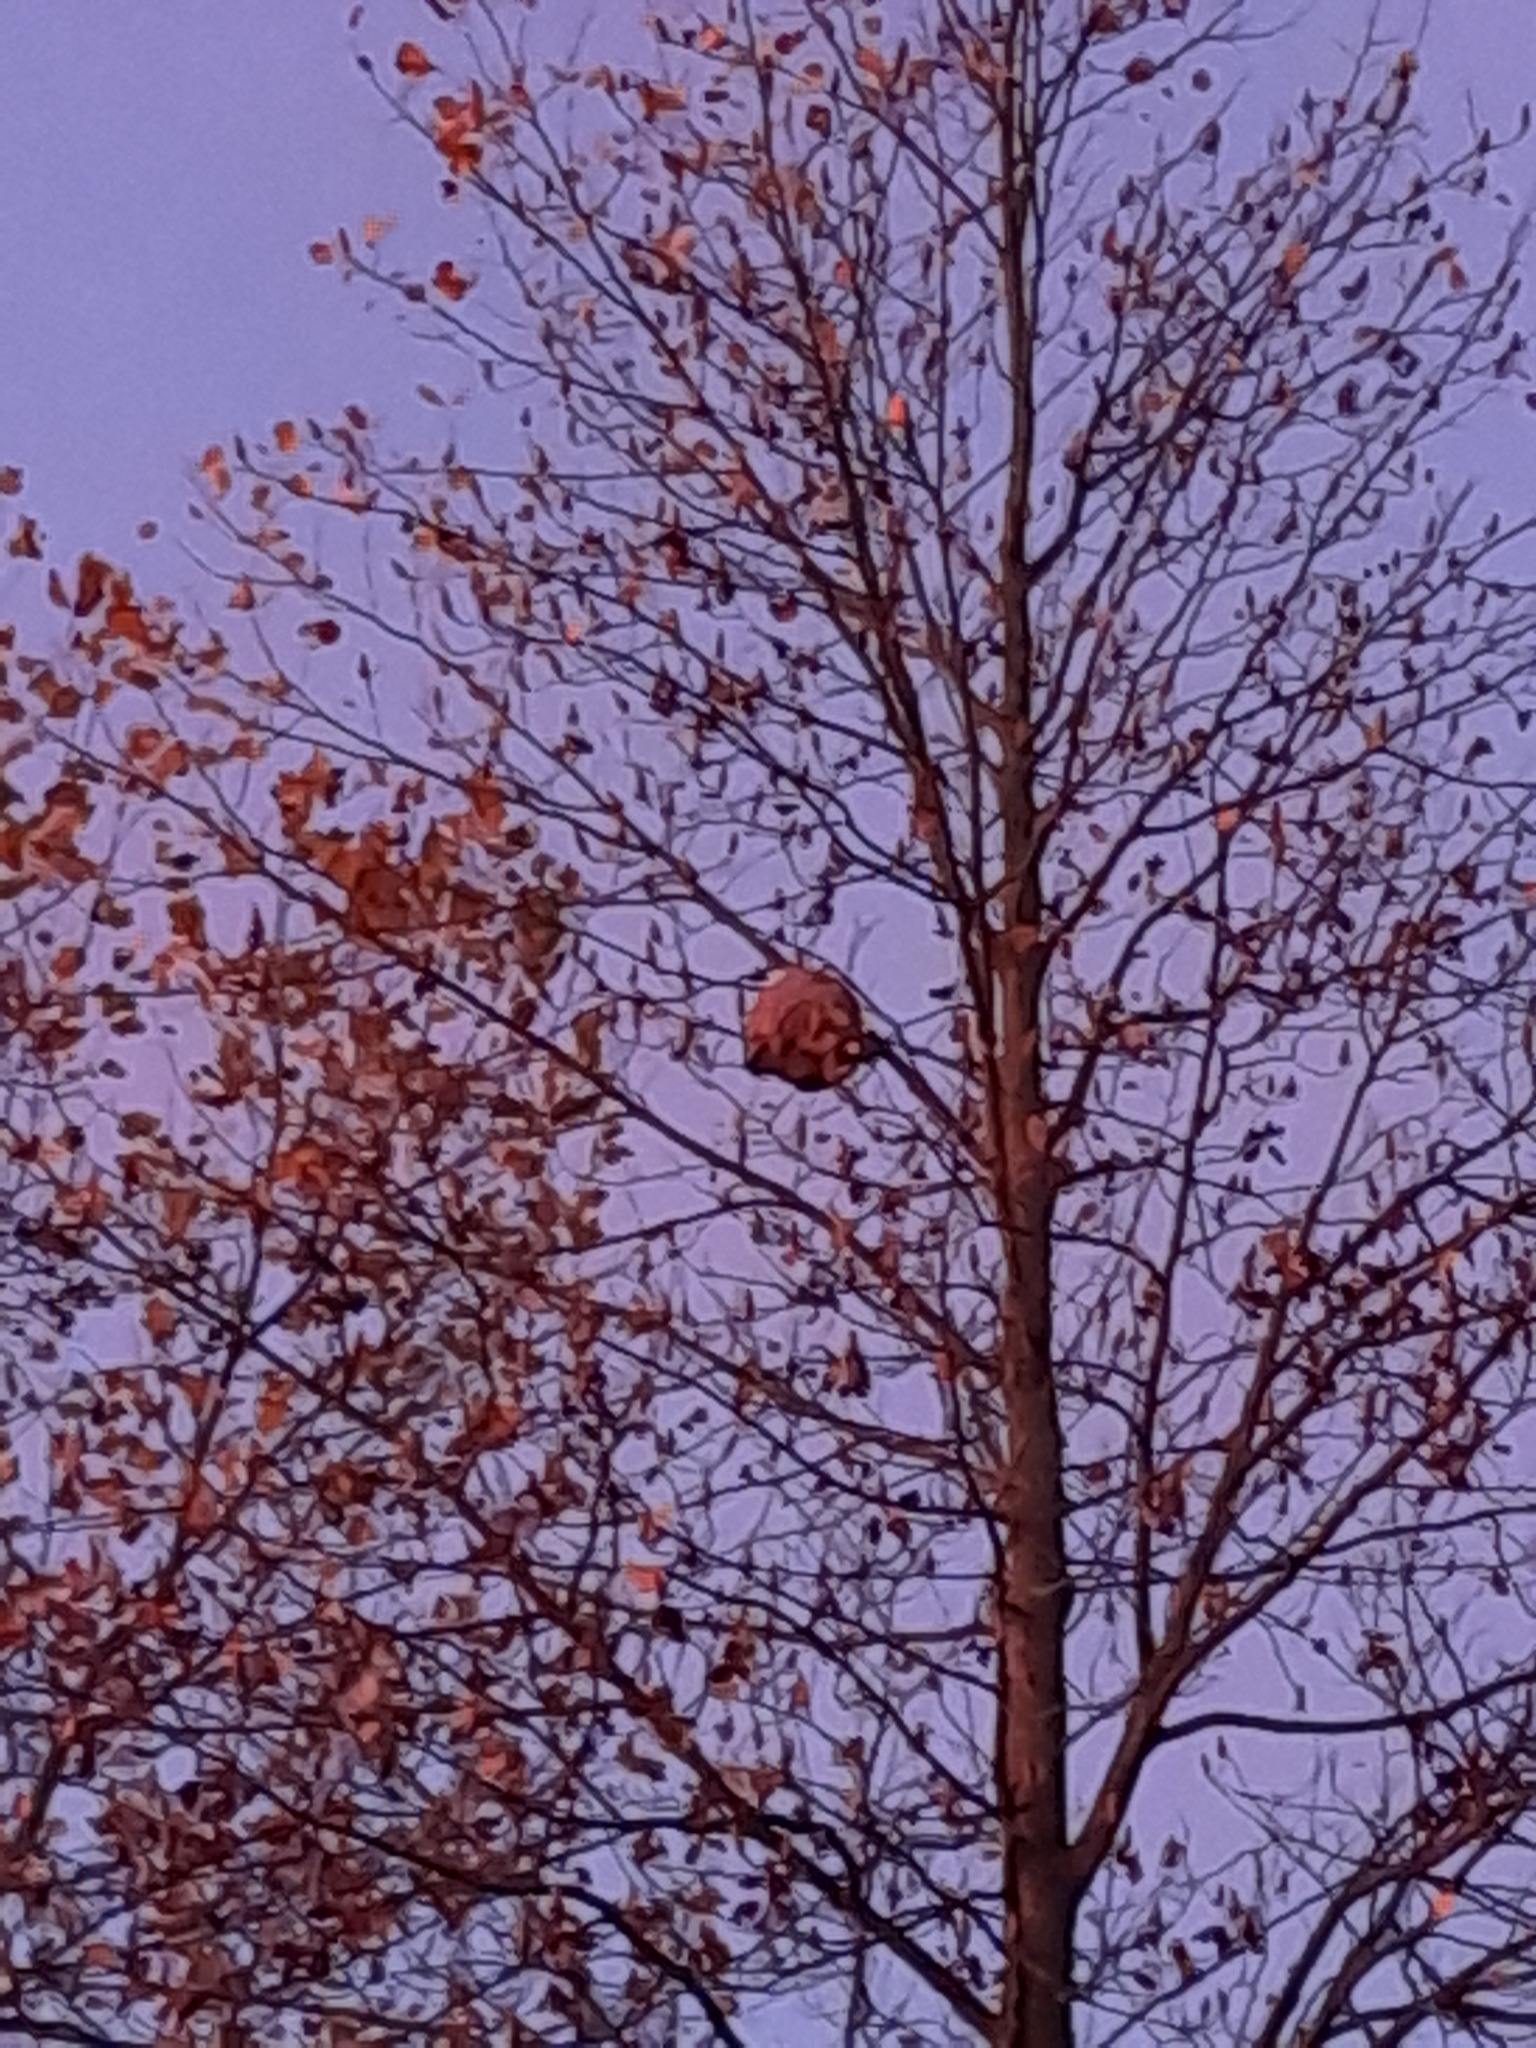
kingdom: Animalia
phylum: Arthropoda
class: Insecta
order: Hymenoptera
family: Vespidae
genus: Vespa
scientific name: Vespa velutina
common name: Asian hornet
